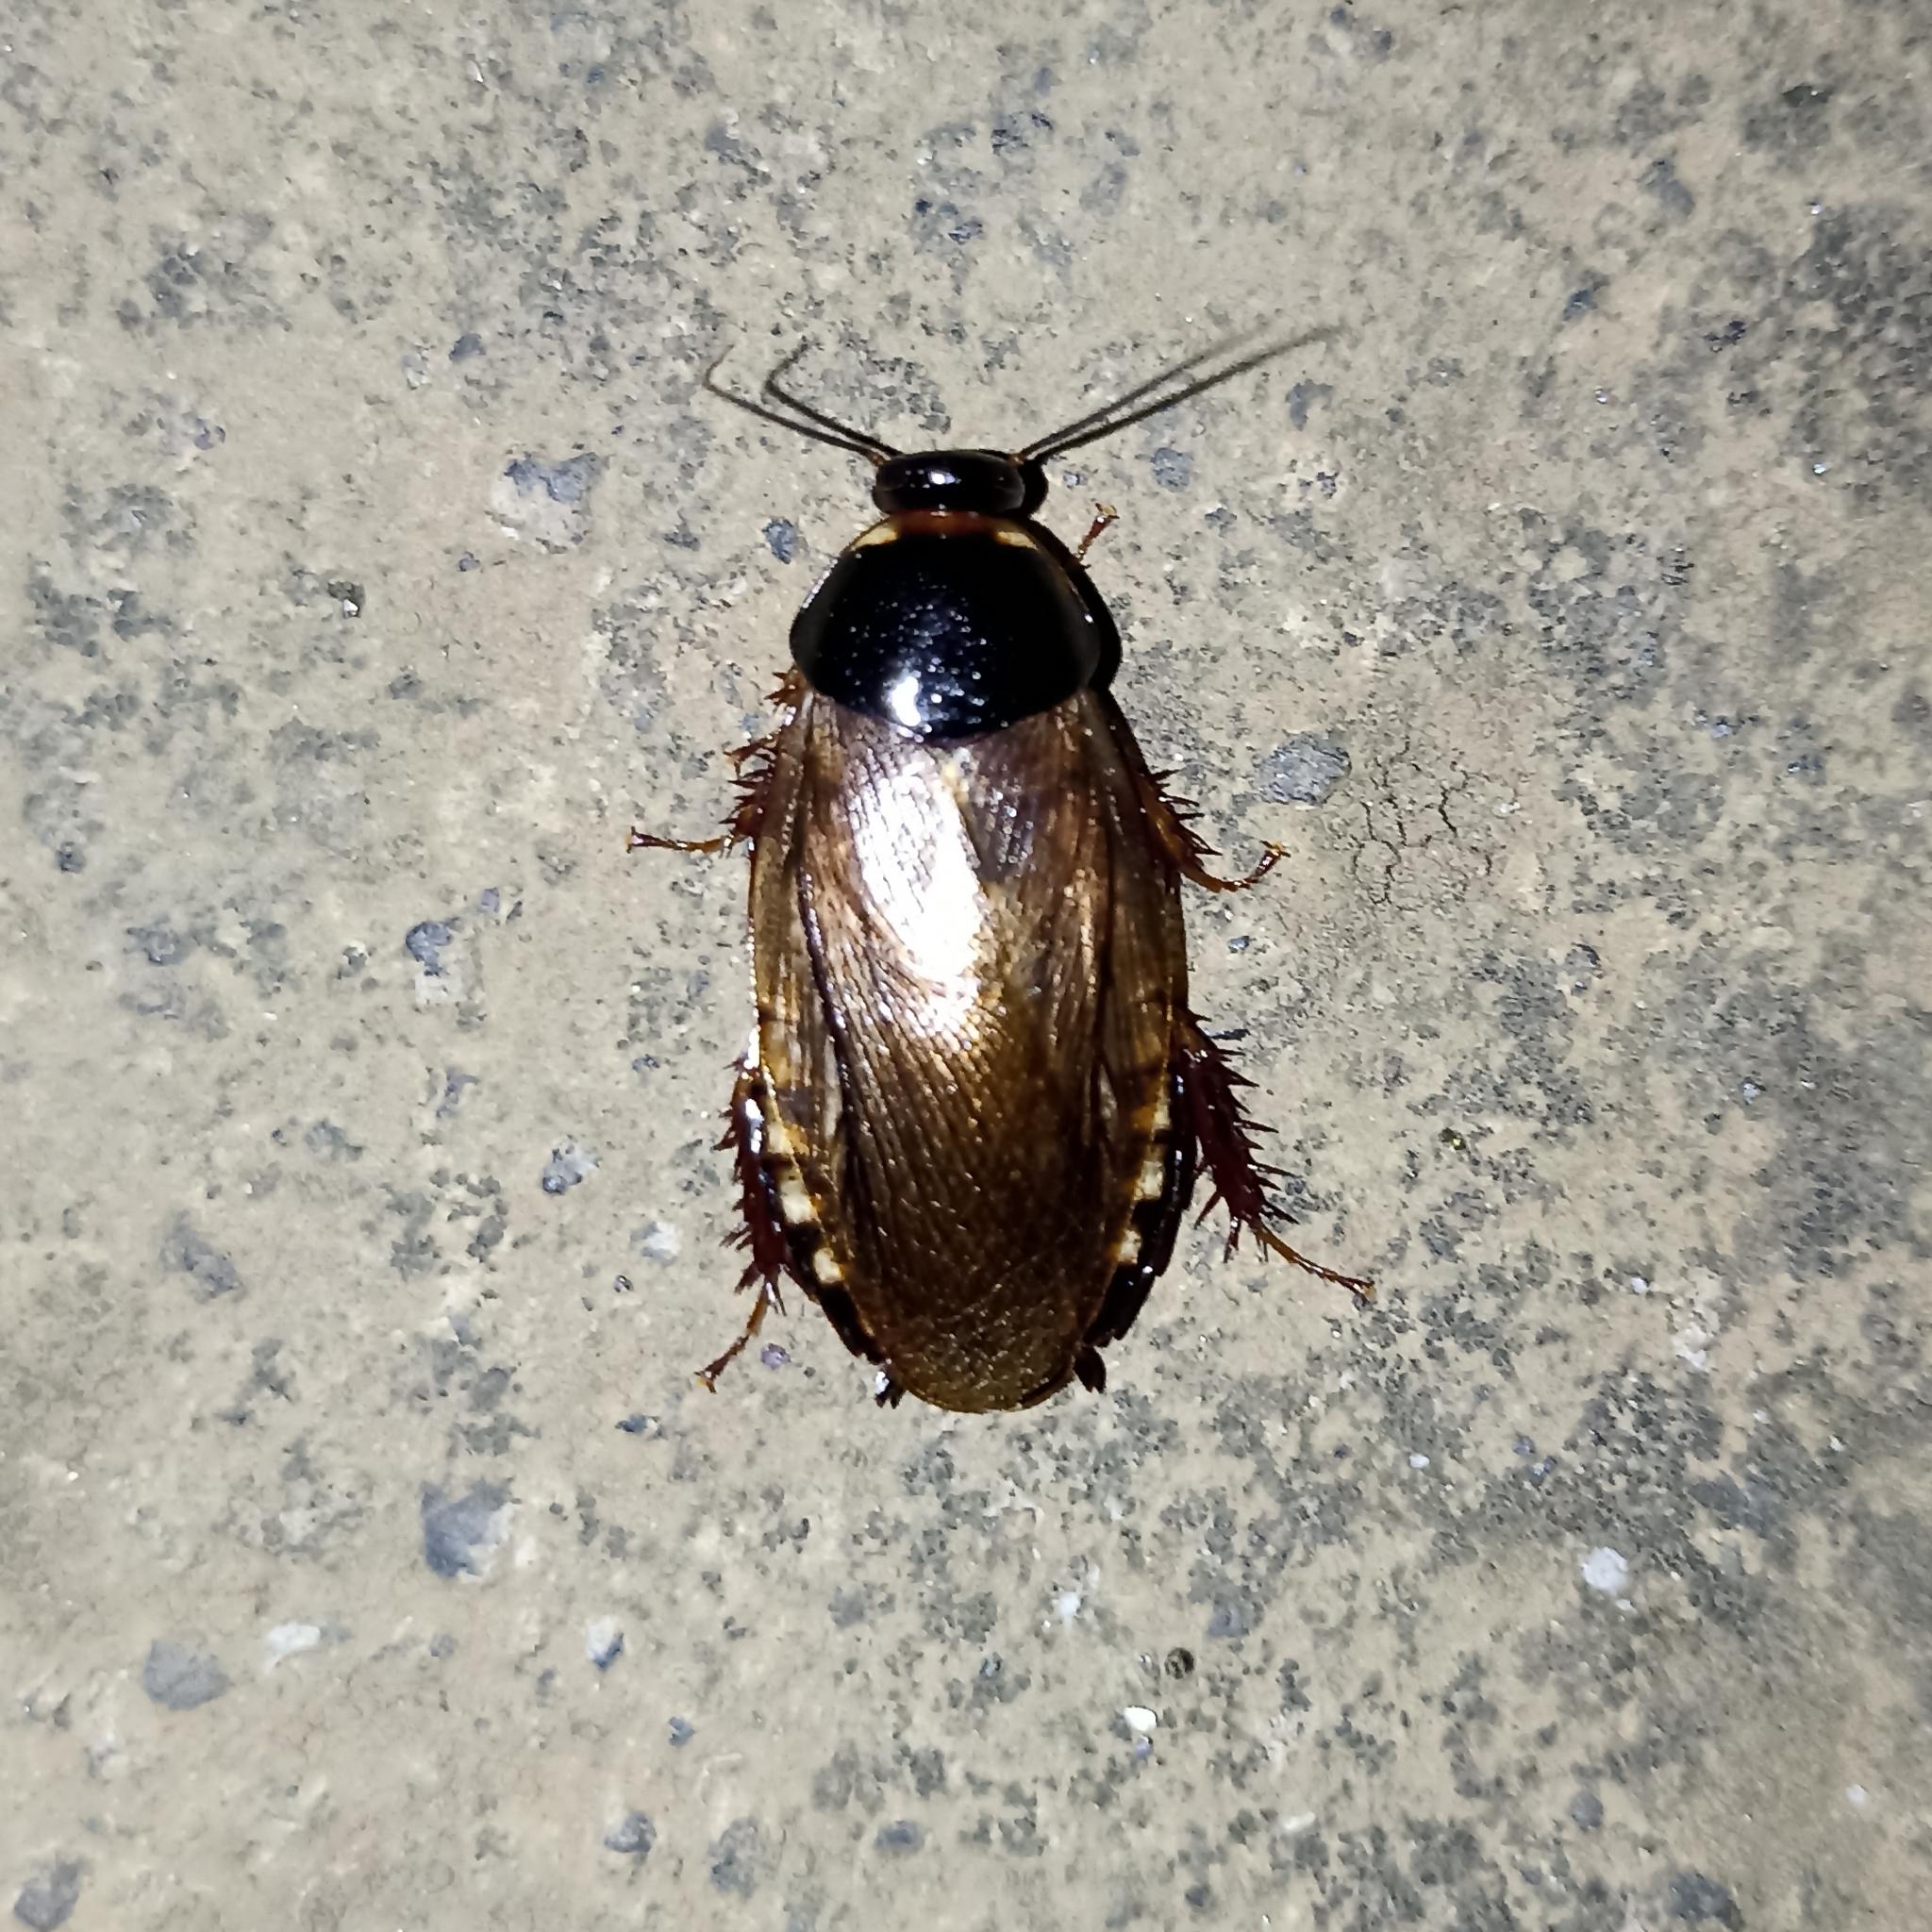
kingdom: Animalia
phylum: Arthropoda
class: Insecta
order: Blattodea
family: Blaberidae
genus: Pycnoscelus
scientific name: Pycnoscelus surinamensis
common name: Surinam cockroach
